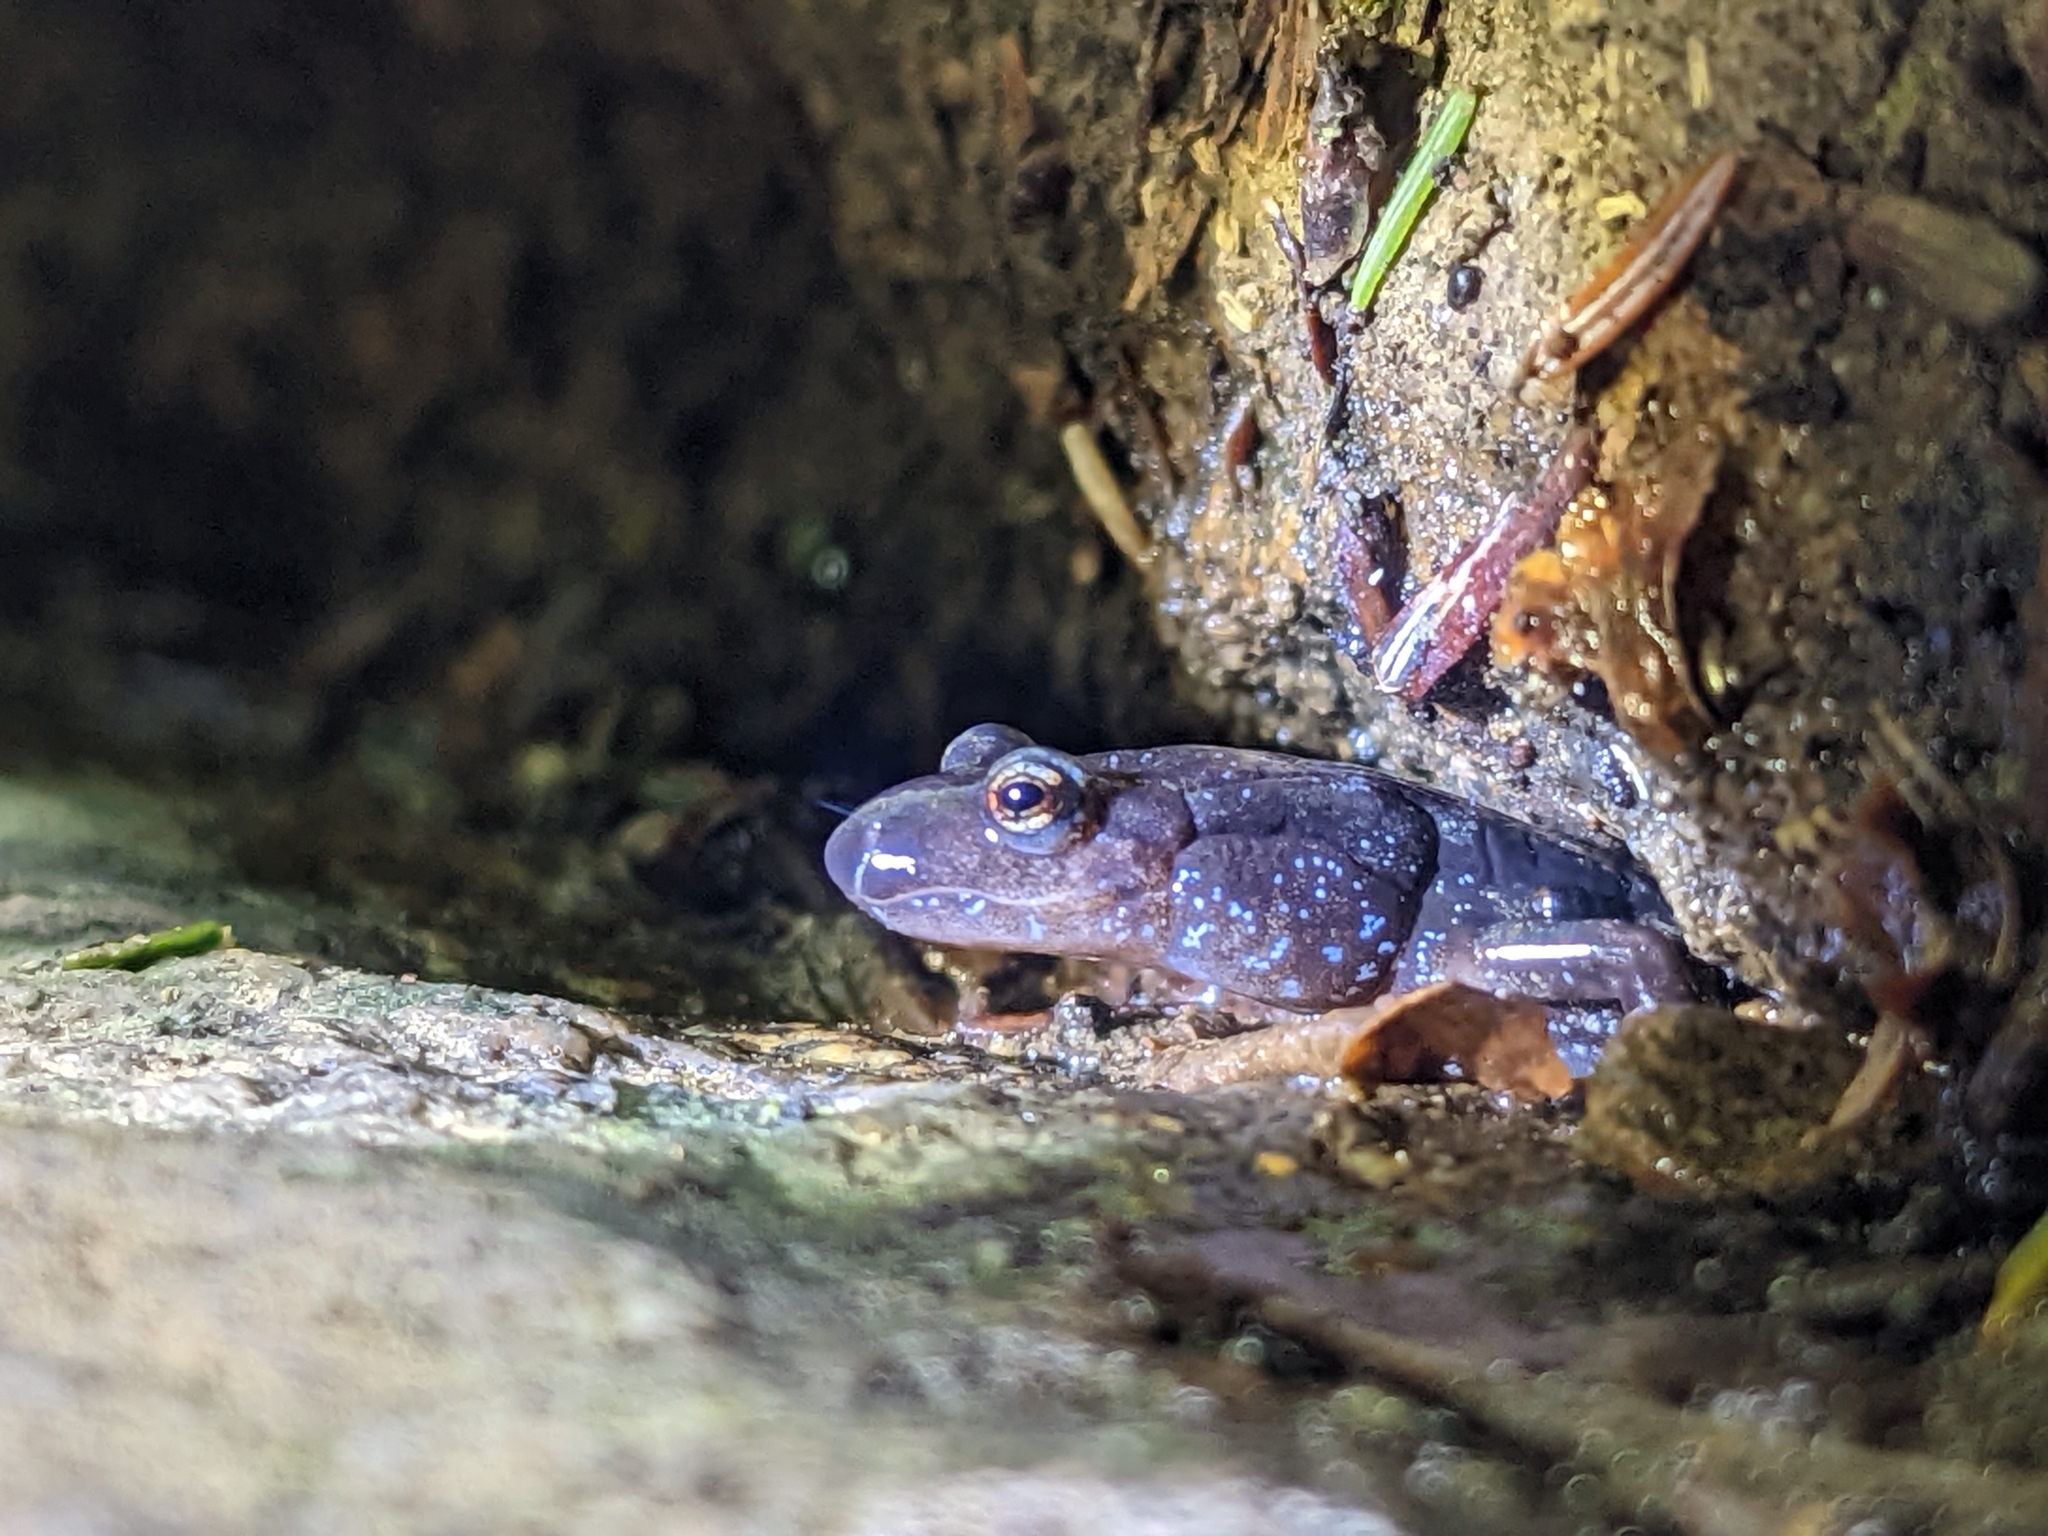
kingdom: Animalia
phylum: Chordata
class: Amphibia
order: Caudata
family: Plethodontidae
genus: Desmognathus
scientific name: Desmognathus monticola
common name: Seal salamander
